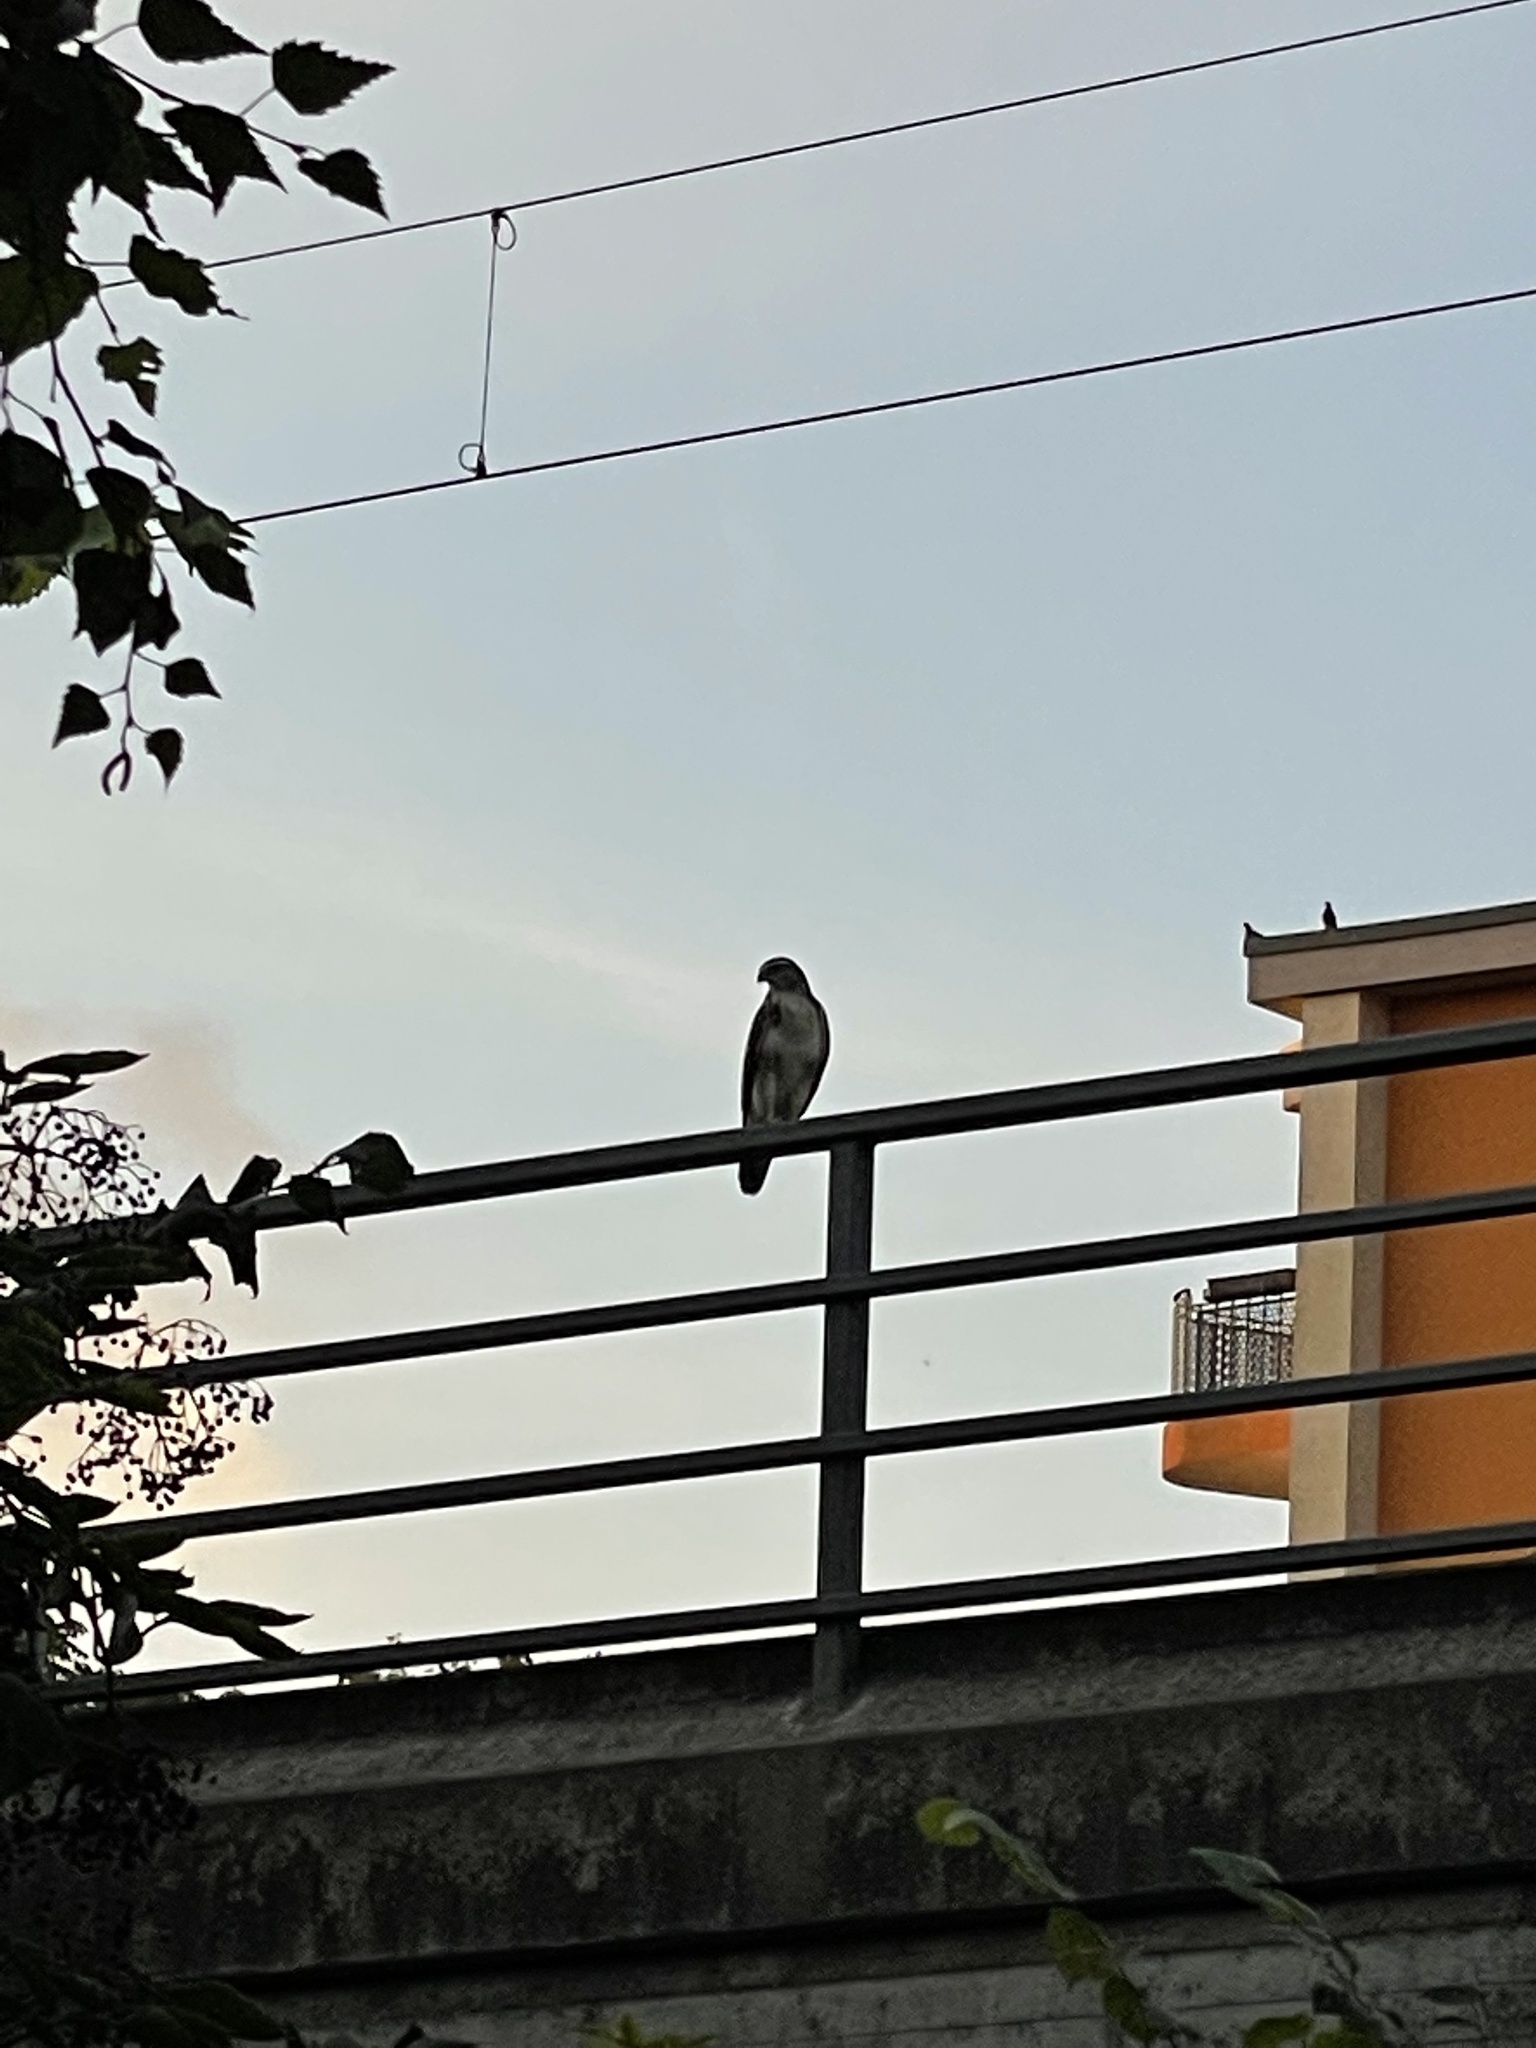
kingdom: Animalia
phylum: Chordata
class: Aves
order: Accipitriformes
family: Accipitridae
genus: Buteo
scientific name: Buteo buteo
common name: Common buzzard
